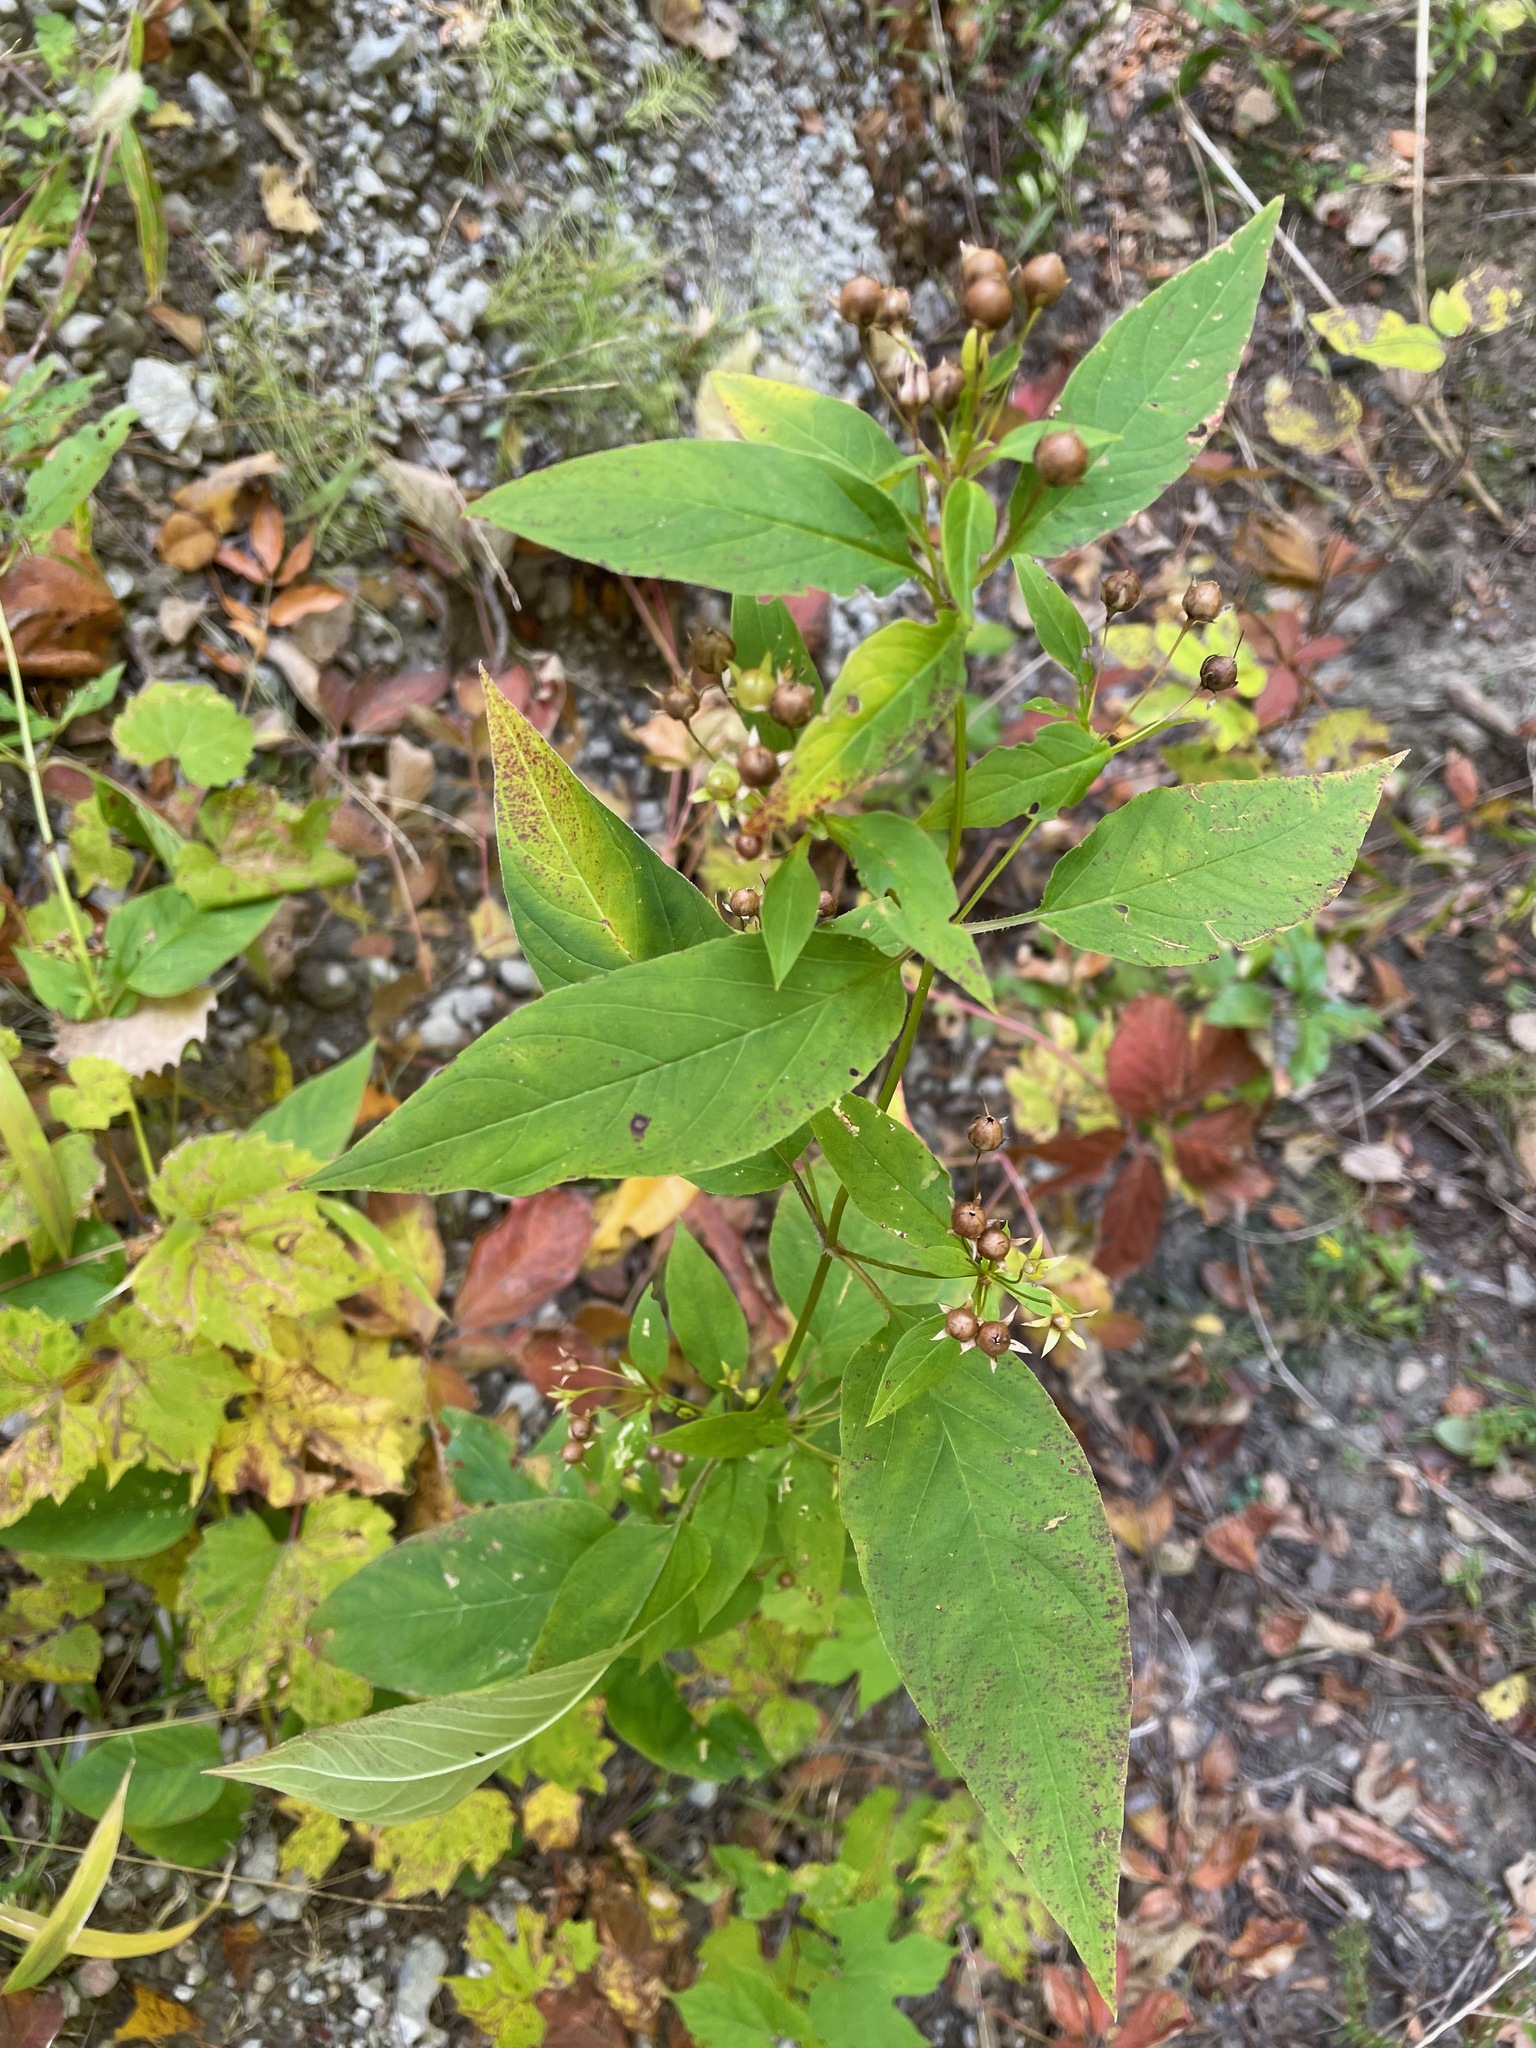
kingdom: Plantae
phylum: Tracheophyta
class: Magnoliopsida
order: Ericales
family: Primulaceae
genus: Lysimachia
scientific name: Lysimachia ciliata
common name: Fringed loosestrife
